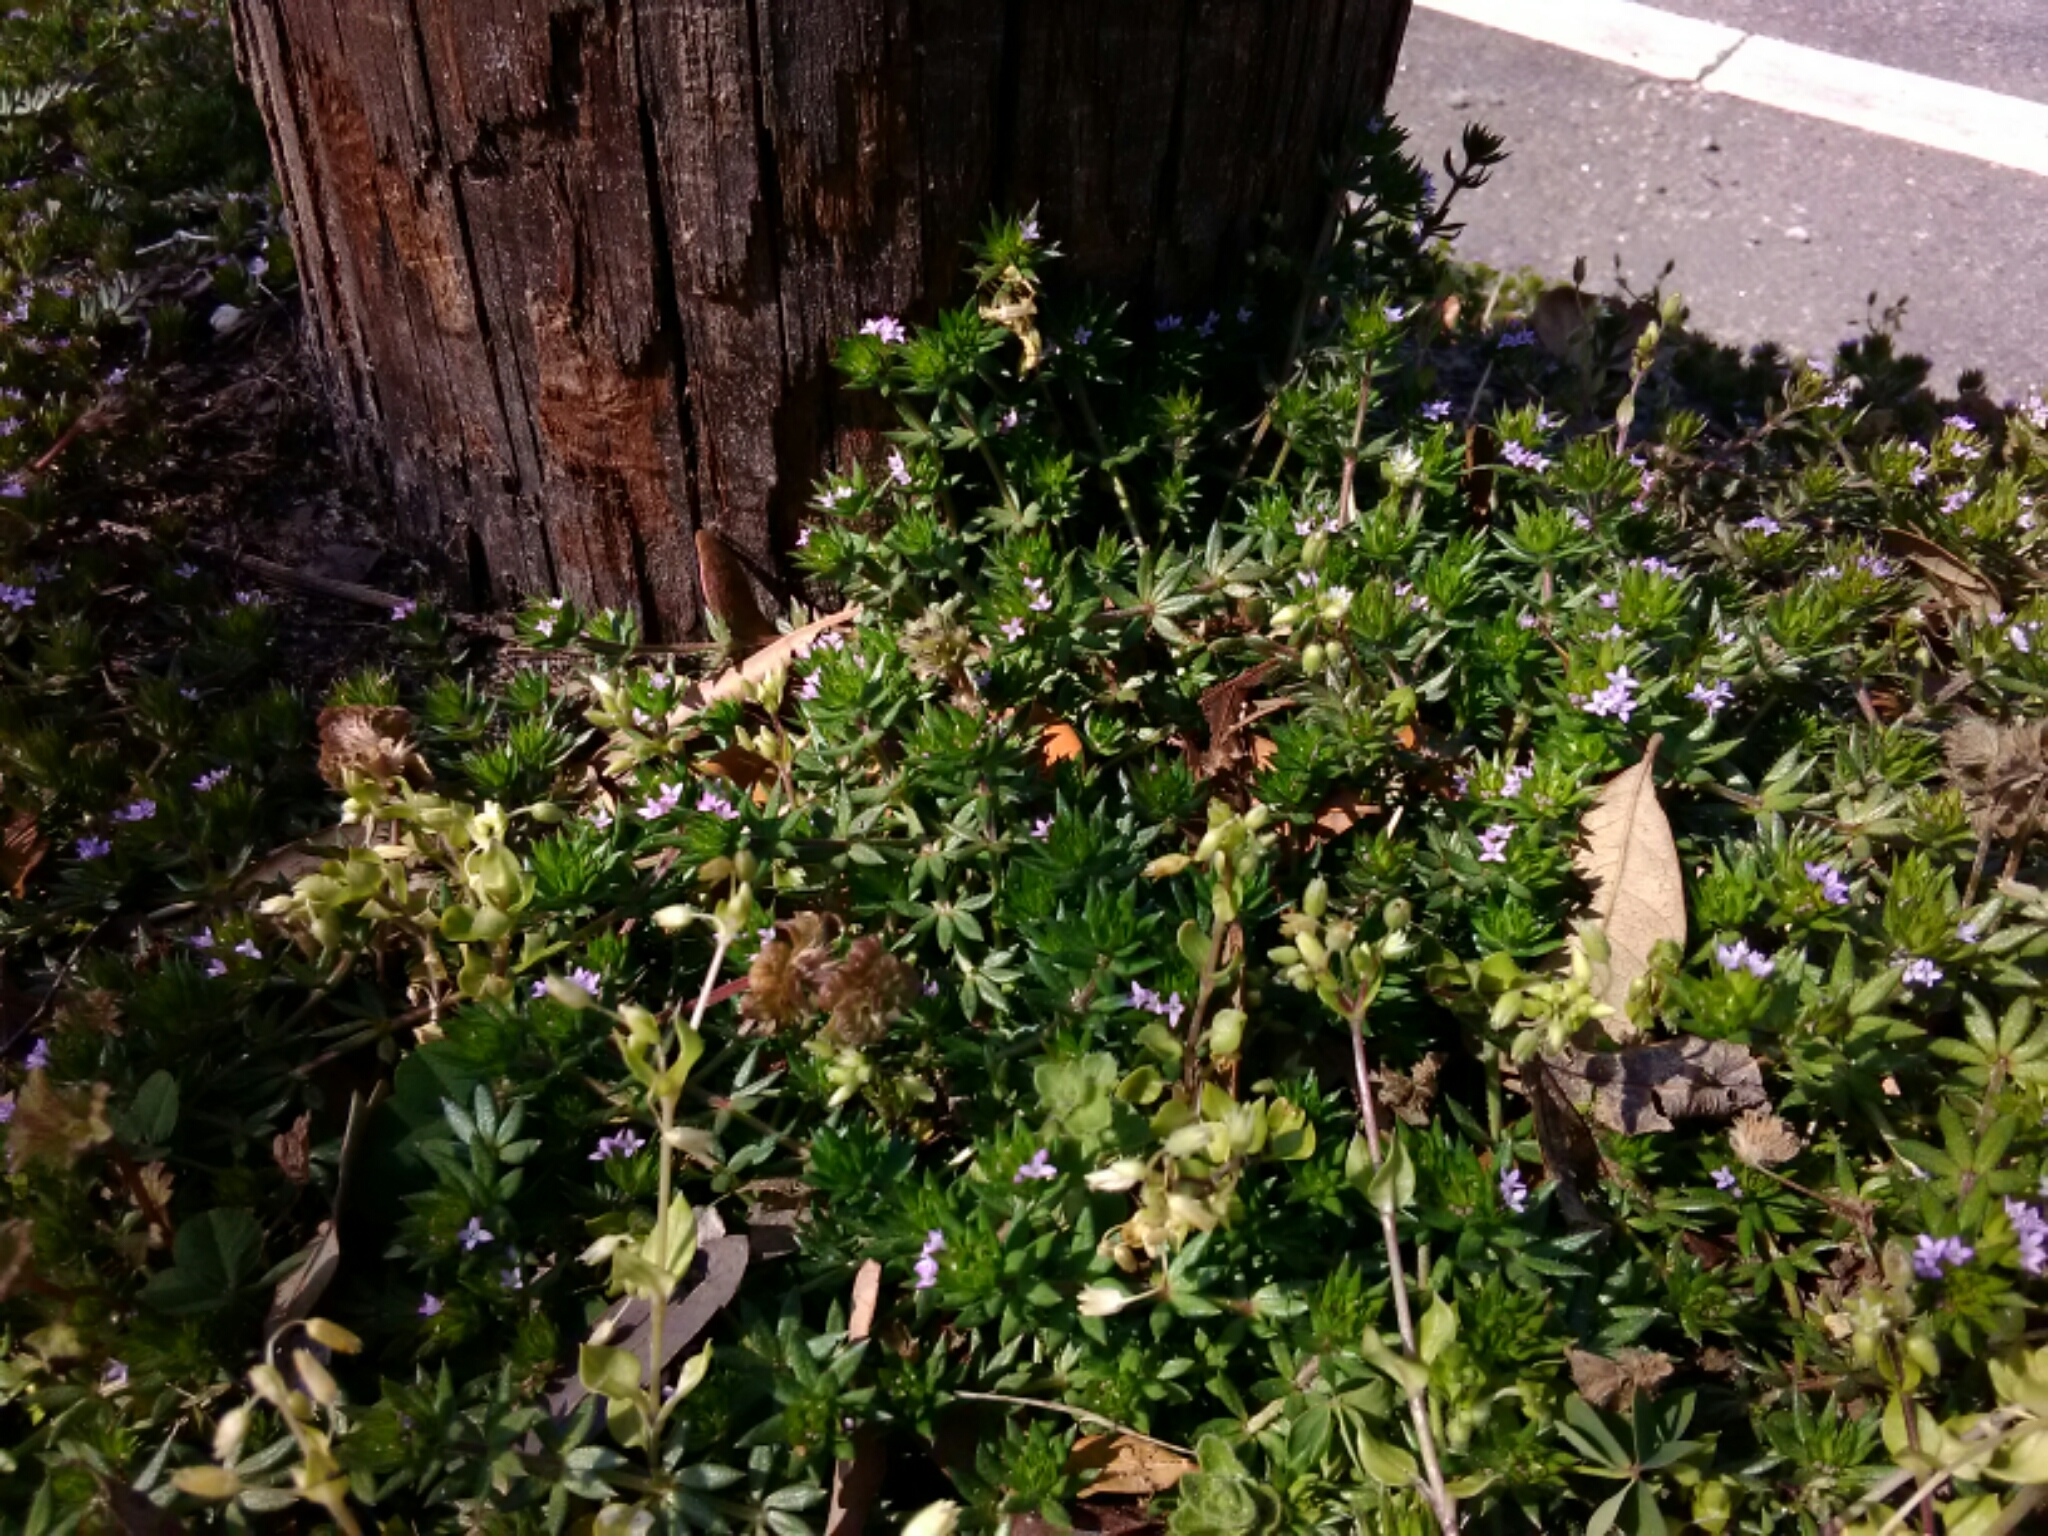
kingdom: Plantae
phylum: Tracheophyta
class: Magnoliopsida
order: Gentianales
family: Rubiaceae
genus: Sherardia
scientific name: Sherardia arvensis
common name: Field madder
